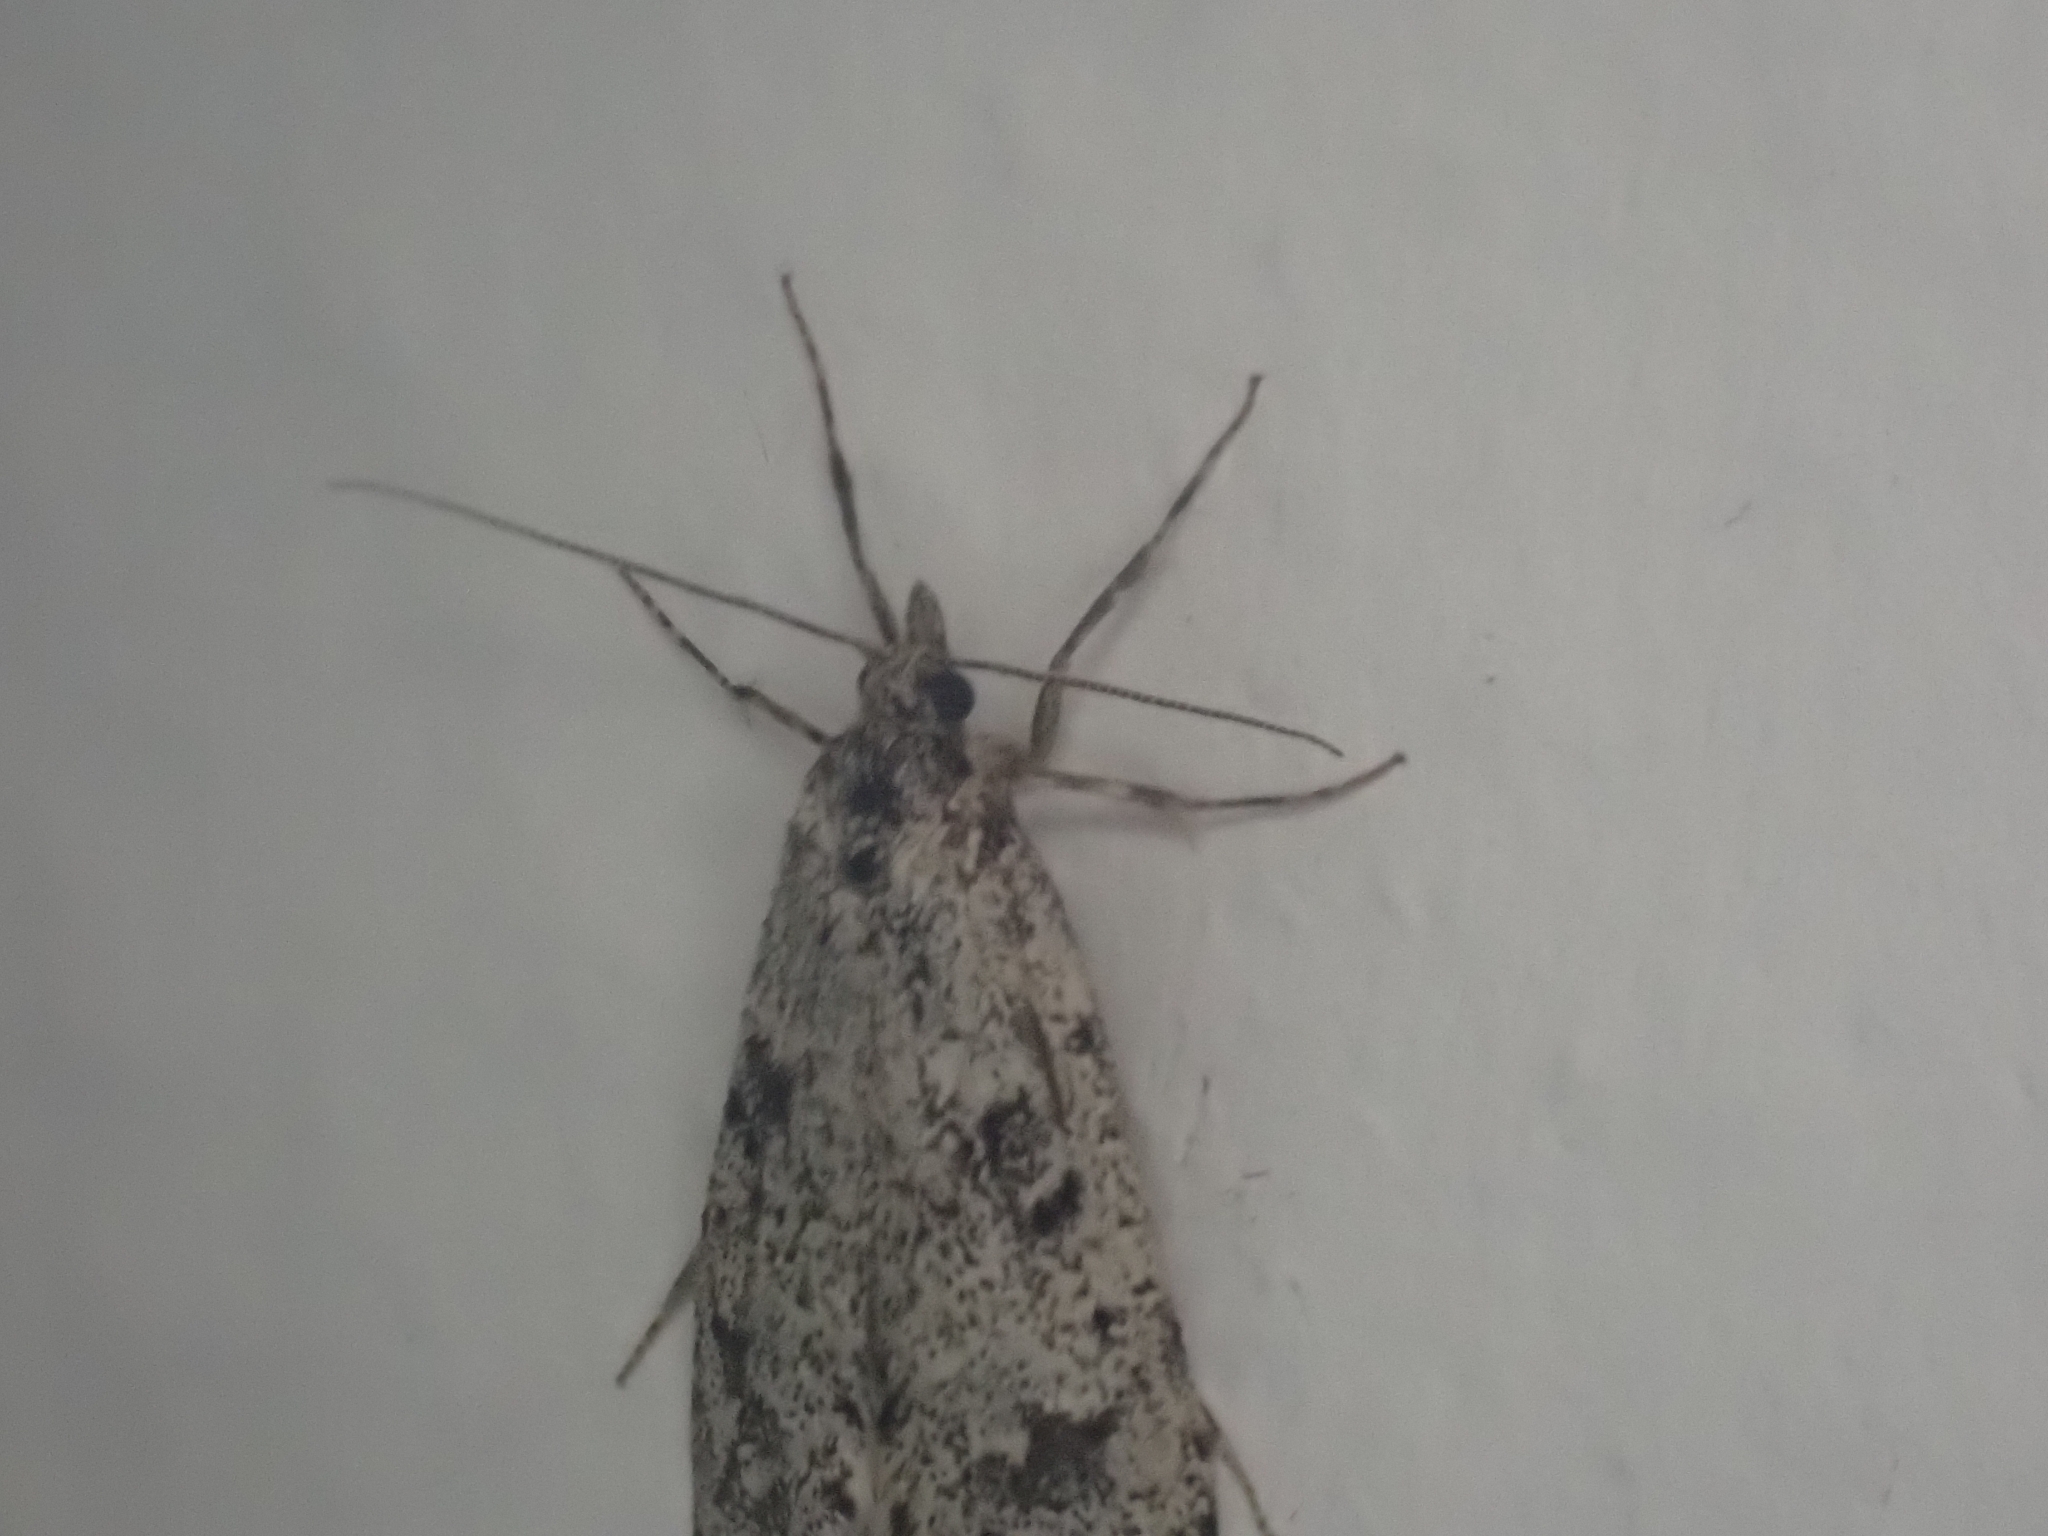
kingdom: Animalia
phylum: Arthropoda
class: Insecta
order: Lepidoptera
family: Lypusidae
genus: Diurnea
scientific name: Diurnea fagella
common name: March tubic
